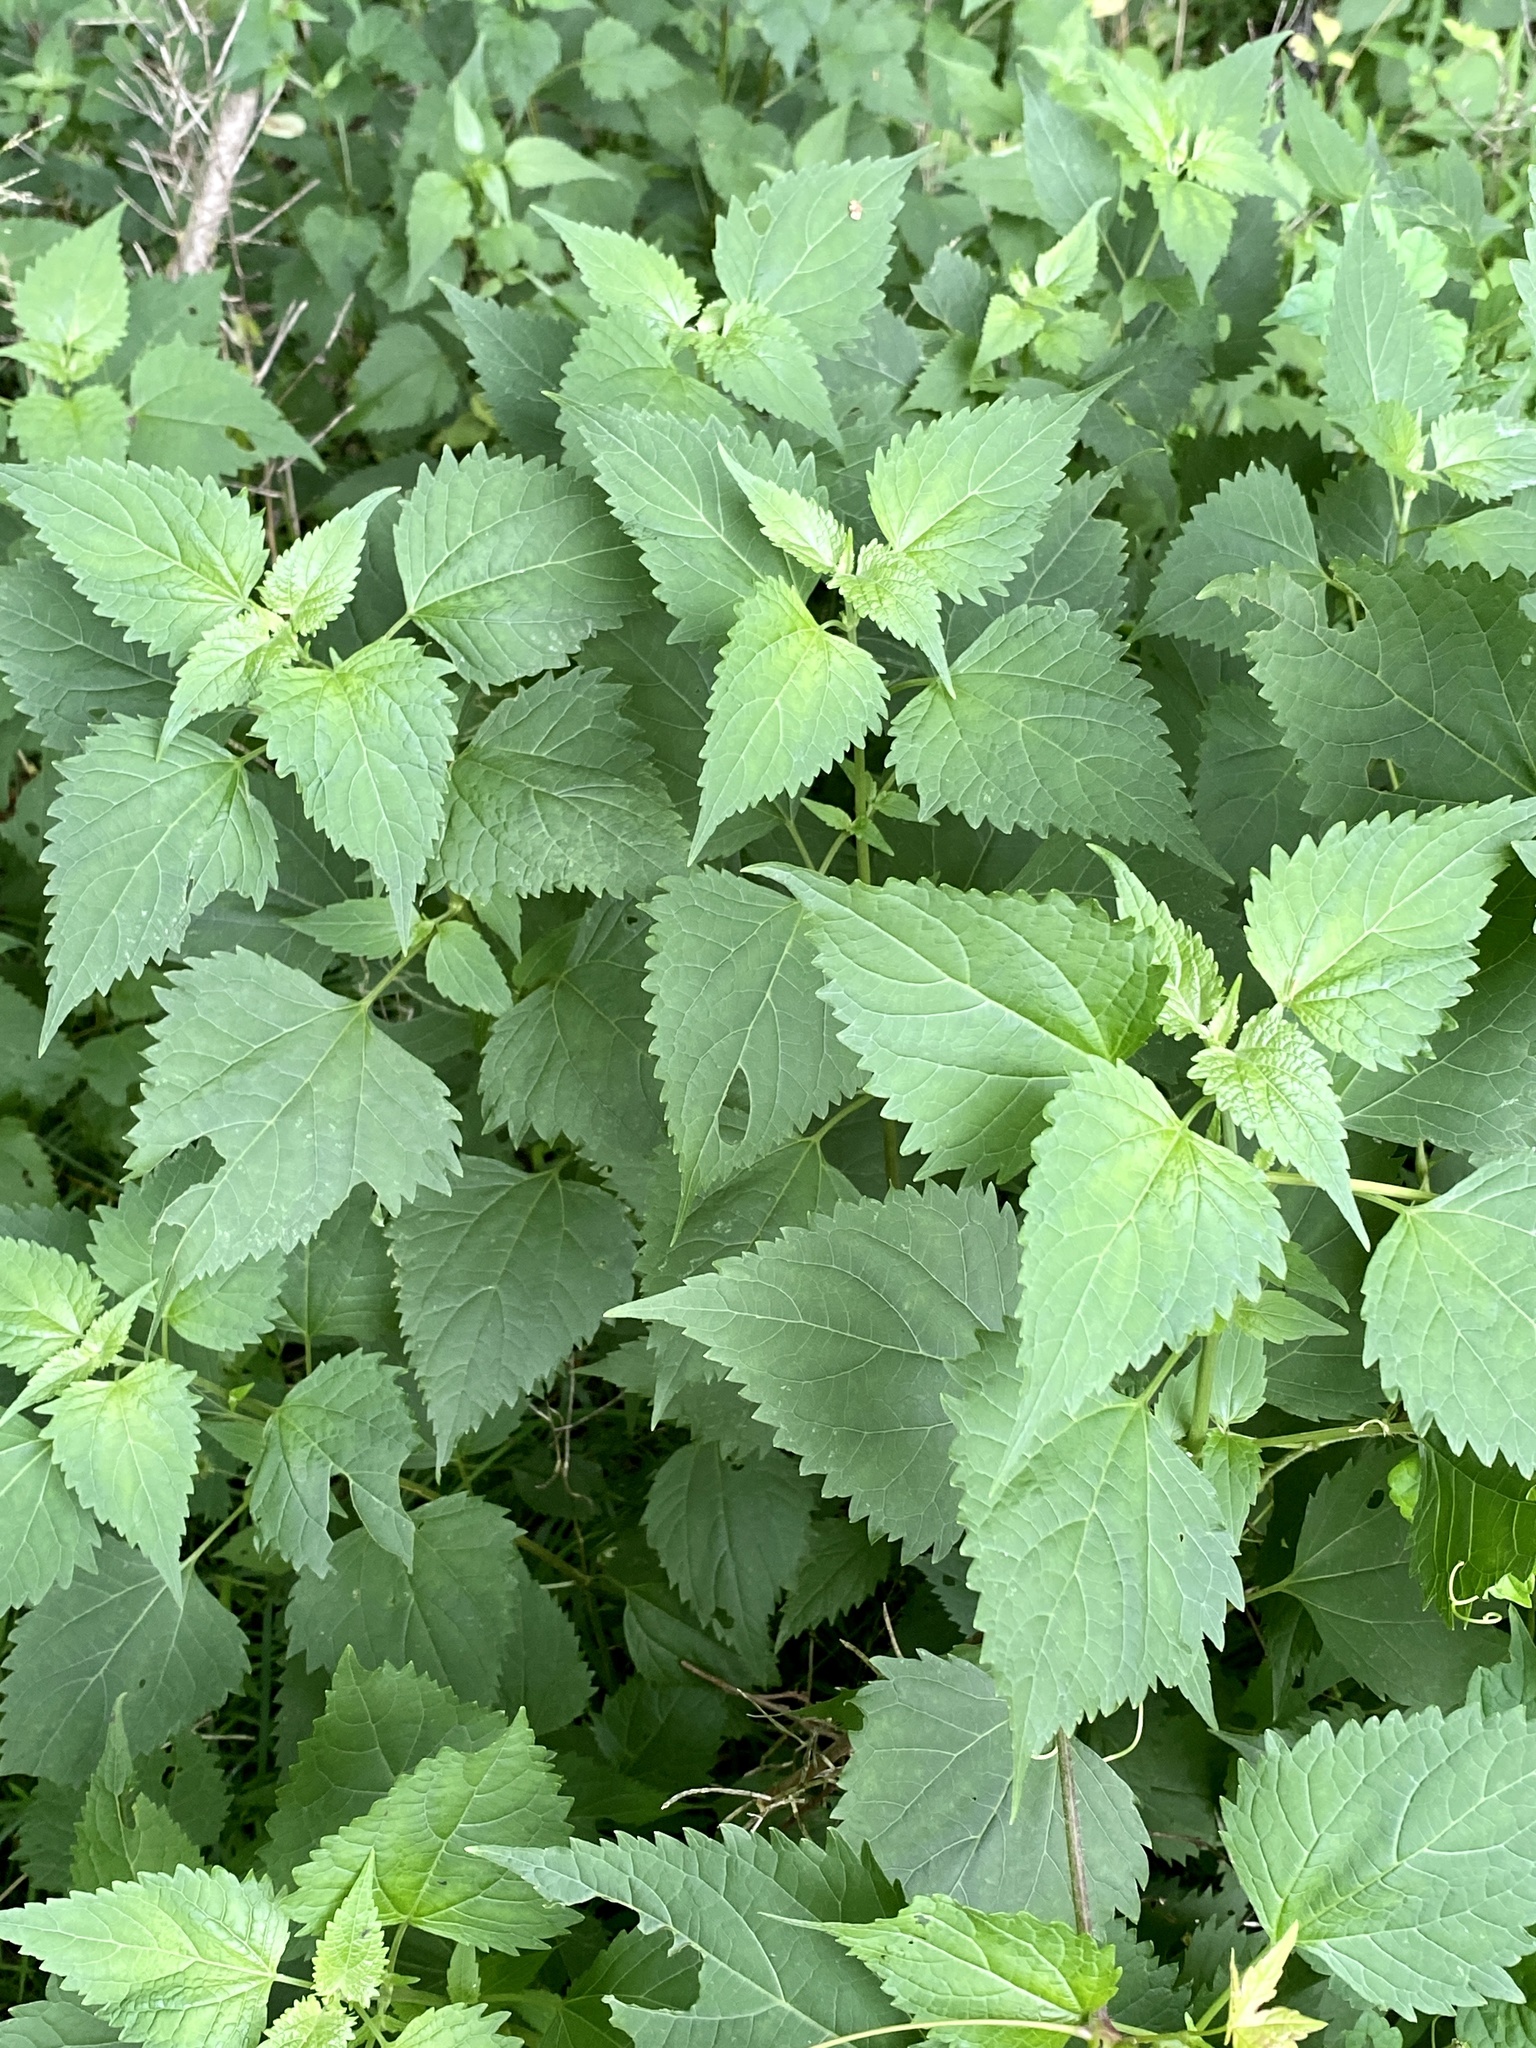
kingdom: Plantae
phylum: Tracheophyta
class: Magnoliopsida
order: Asterales
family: Asteraceae
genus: Ageratina
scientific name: Ageratina altissima
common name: White snakeroot
